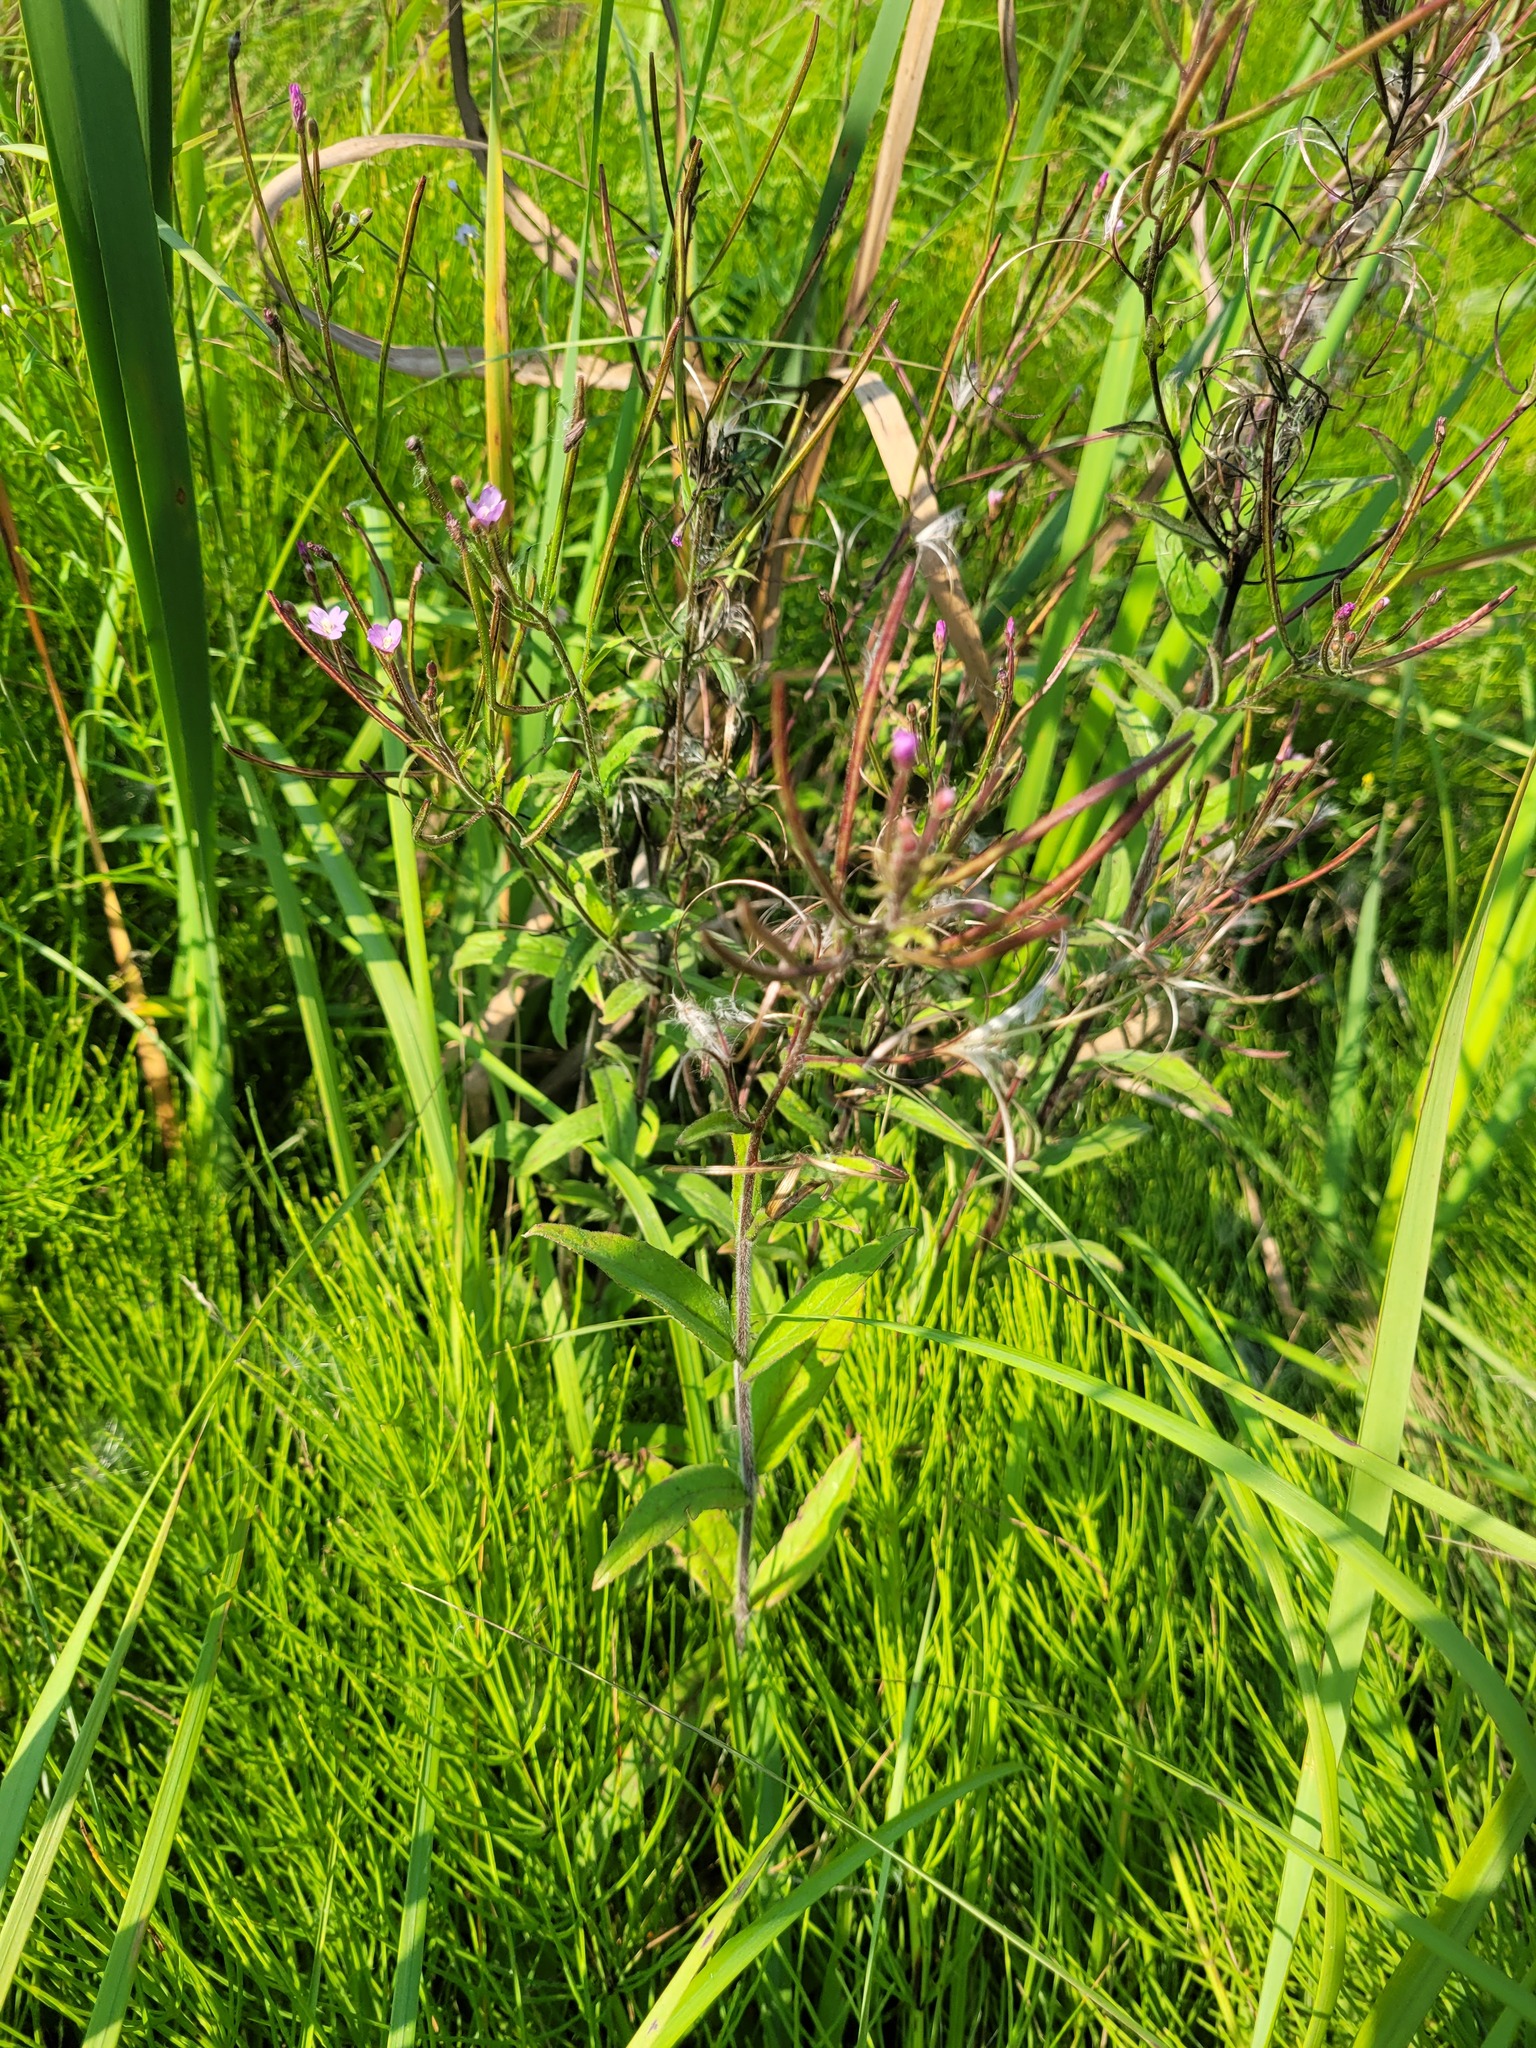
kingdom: Plantae
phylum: Tracheophyta
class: Magnoliopsida
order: Myrtales
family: Onagraceae
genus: Epilobium
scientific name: Epilobium parviflorum
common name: Hoary willowherb
